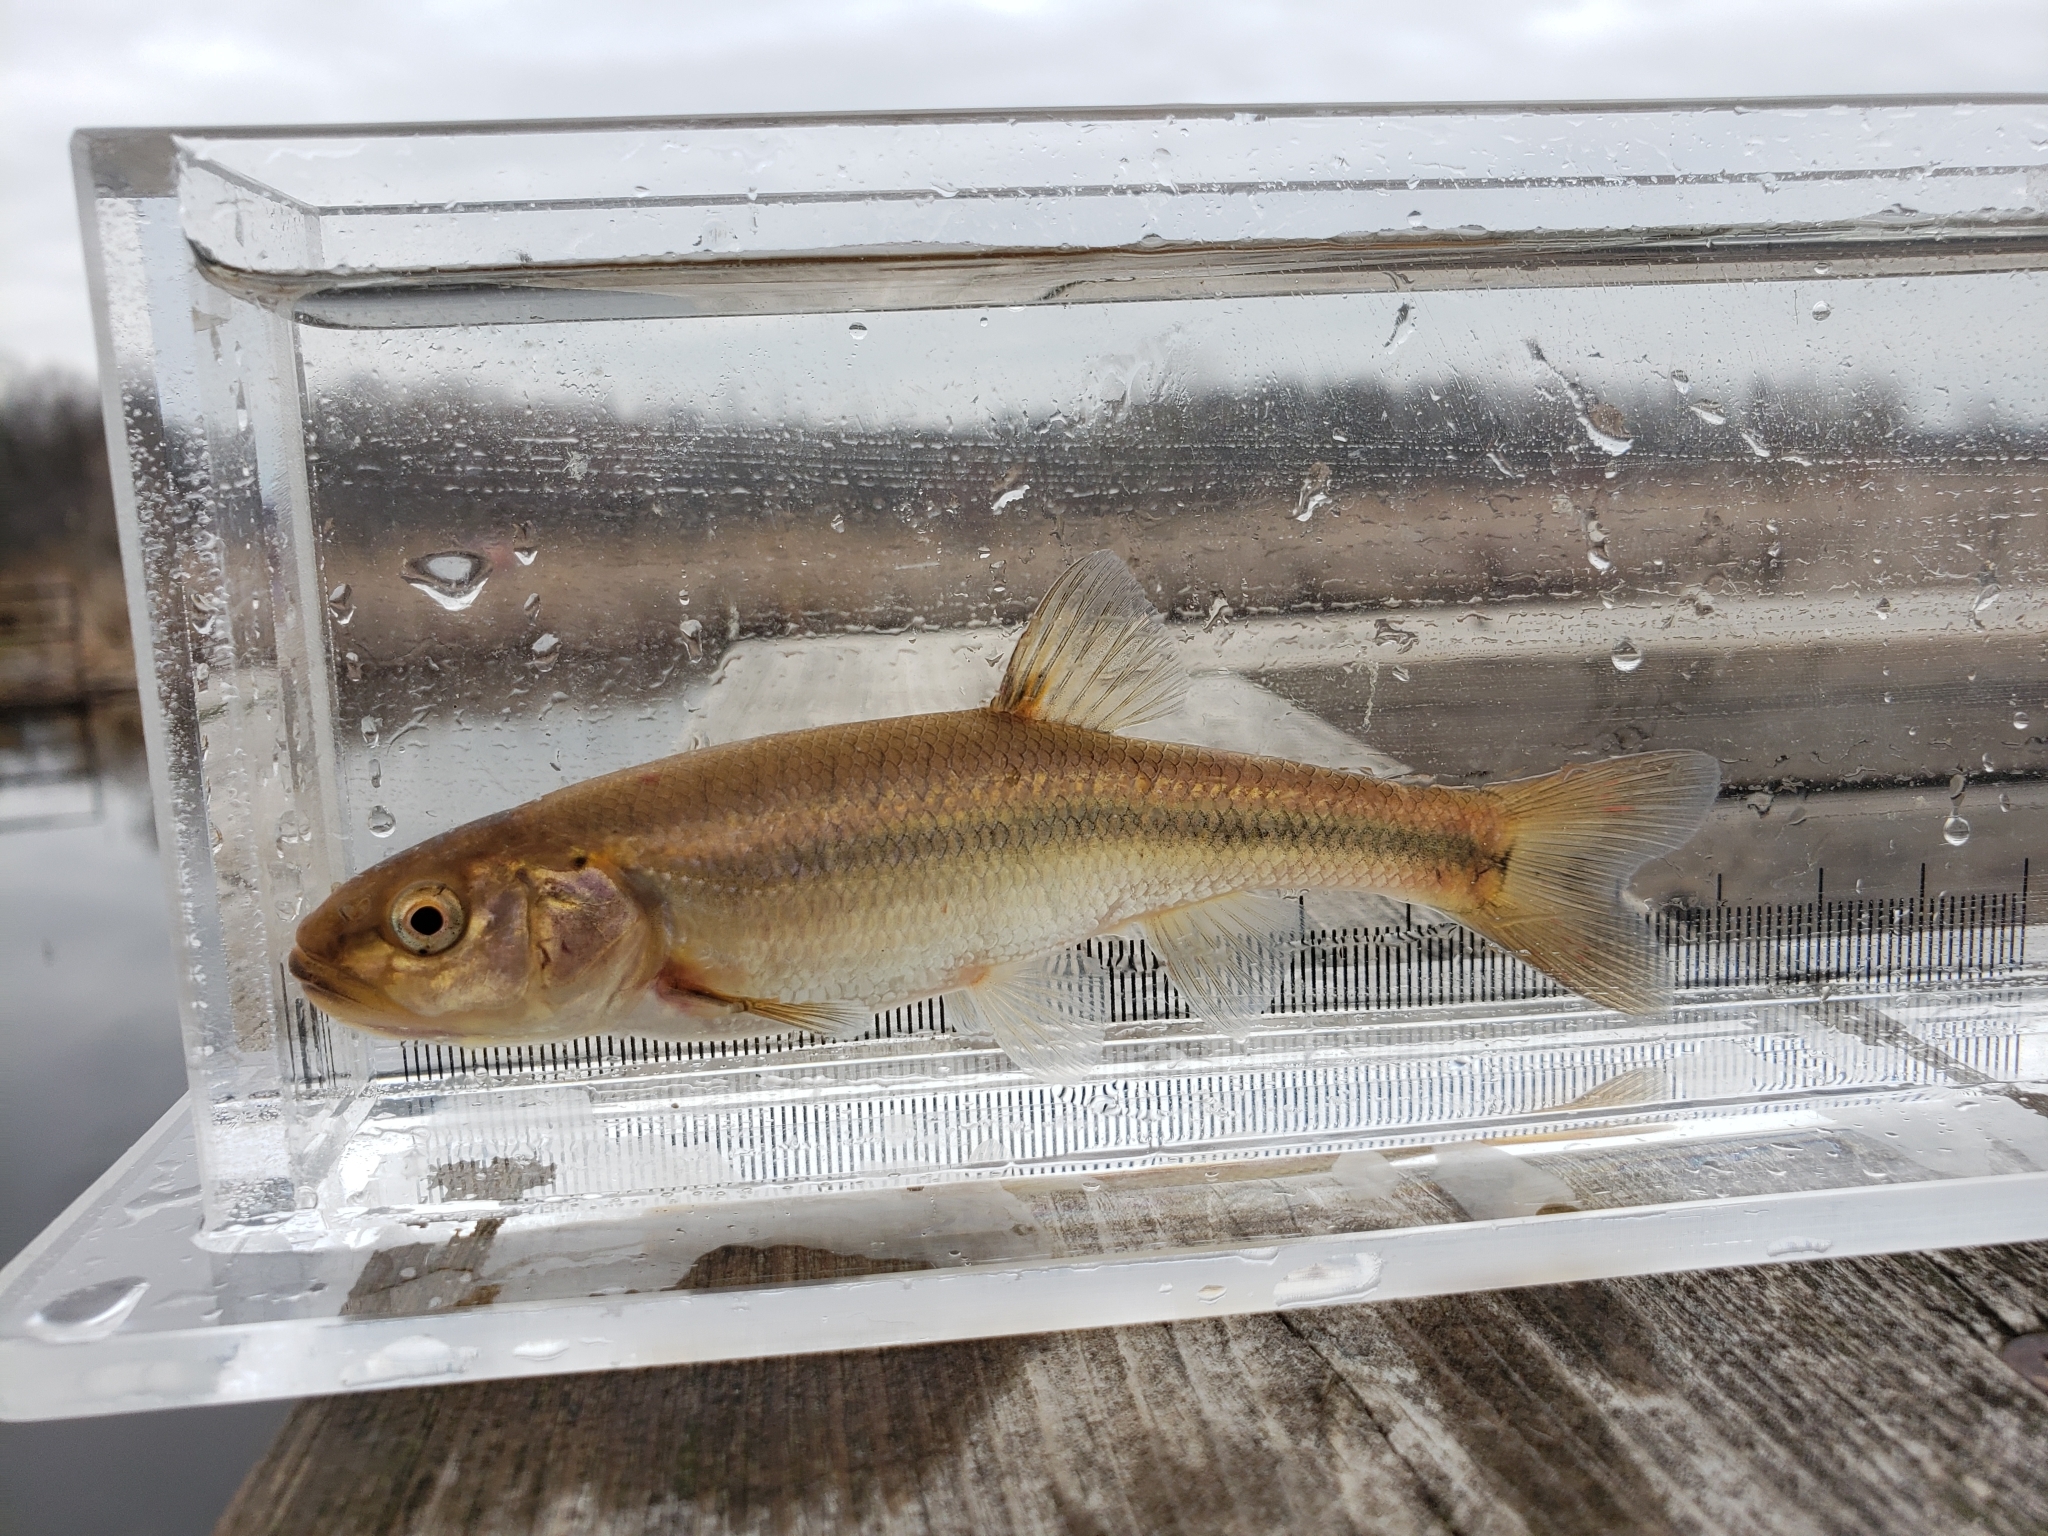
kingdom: Animalia
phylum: Chordata
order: Cypriniformes
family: Cyprinidae
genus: Semotilus
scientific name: Semotilus atromaculatus
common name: Creek chub
